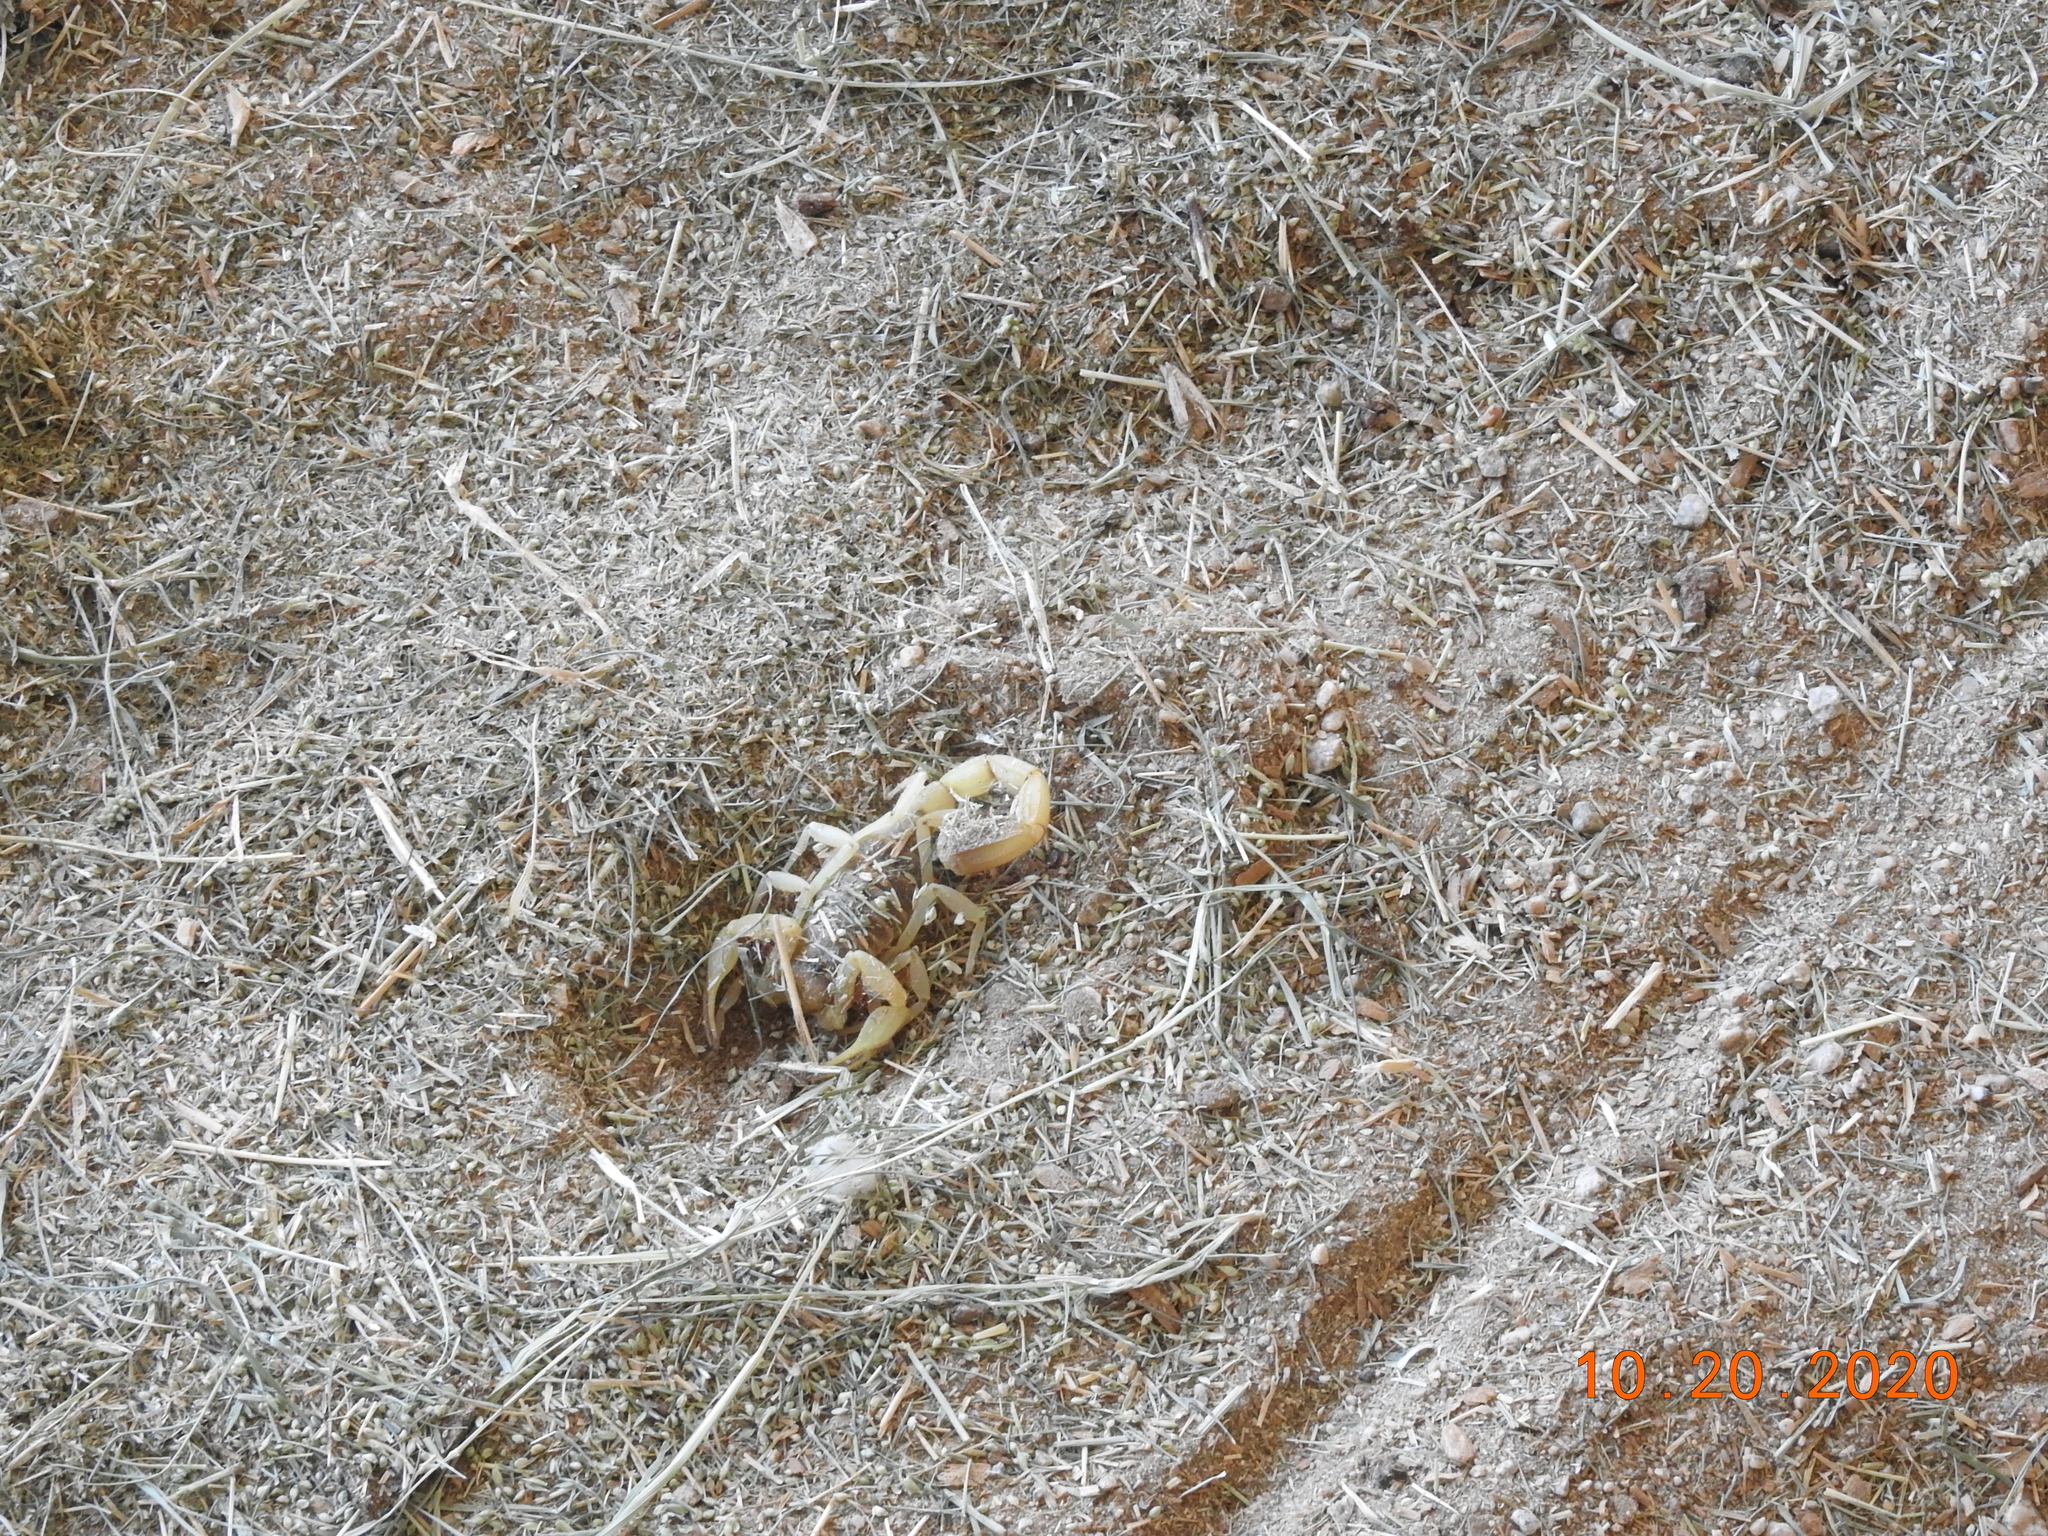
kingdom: Animalia
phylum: Arthropoda
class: Arachnida
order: Scorpiones
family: Hadruridae
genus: Hadrurus
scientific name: Hadrurus arizonensis
